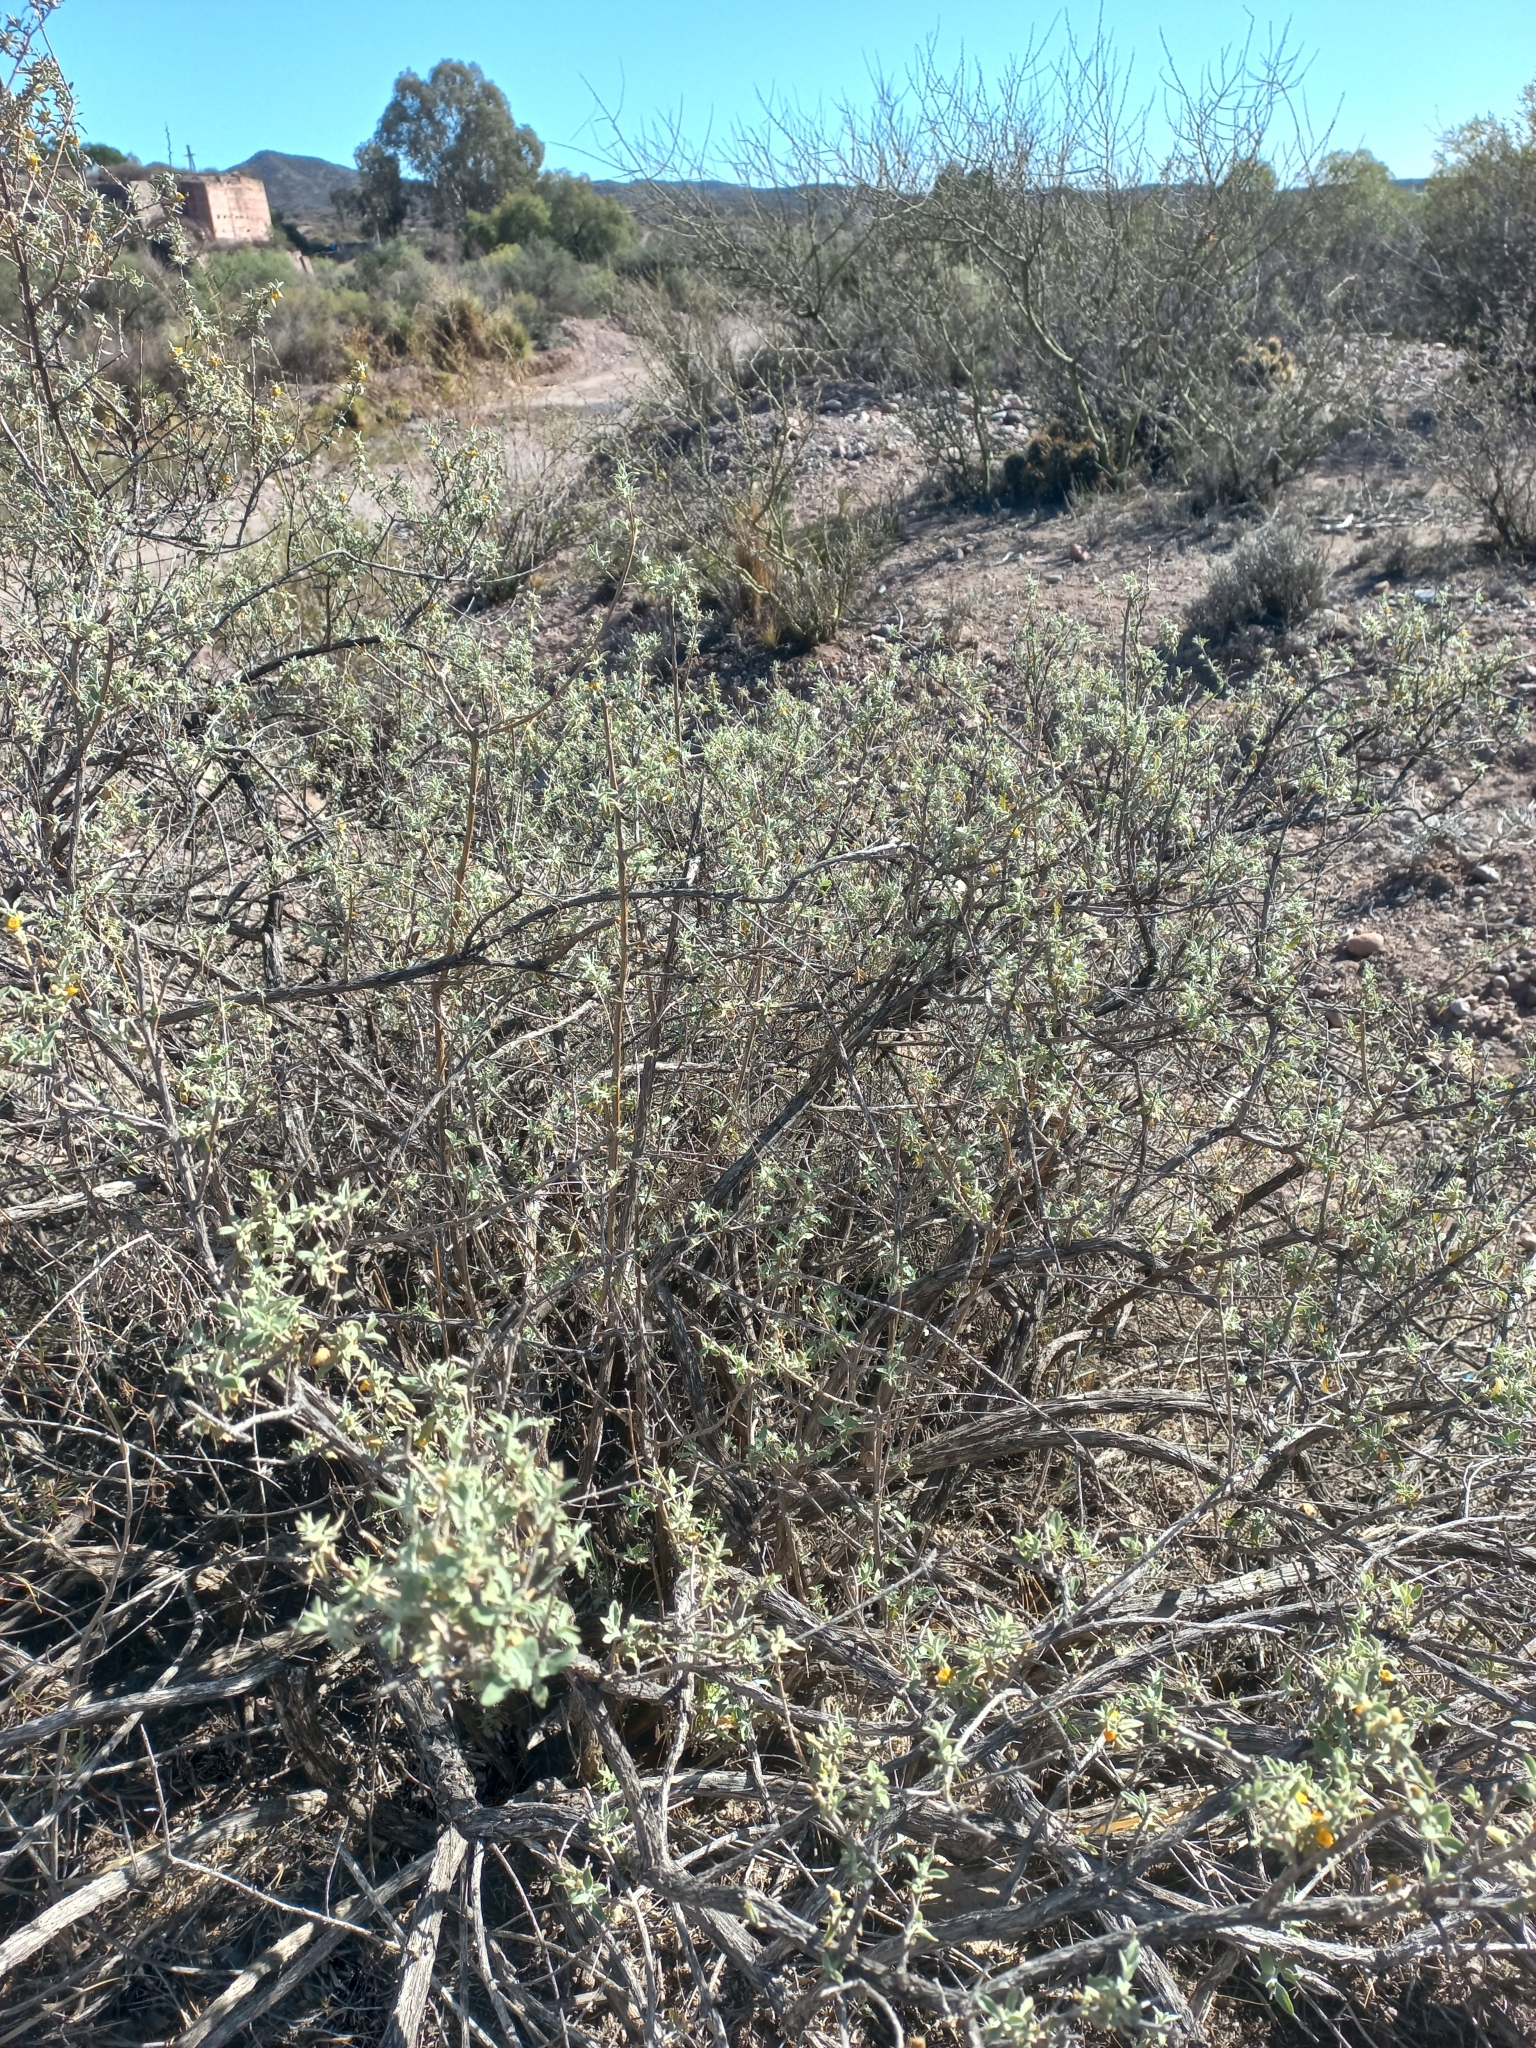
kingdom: Plantae
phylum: Tracheophyta
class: Magnoliopsida
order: Lamiales
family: Scrophulariaceae
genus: Buddleja
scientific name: Buddleja mendozensis
